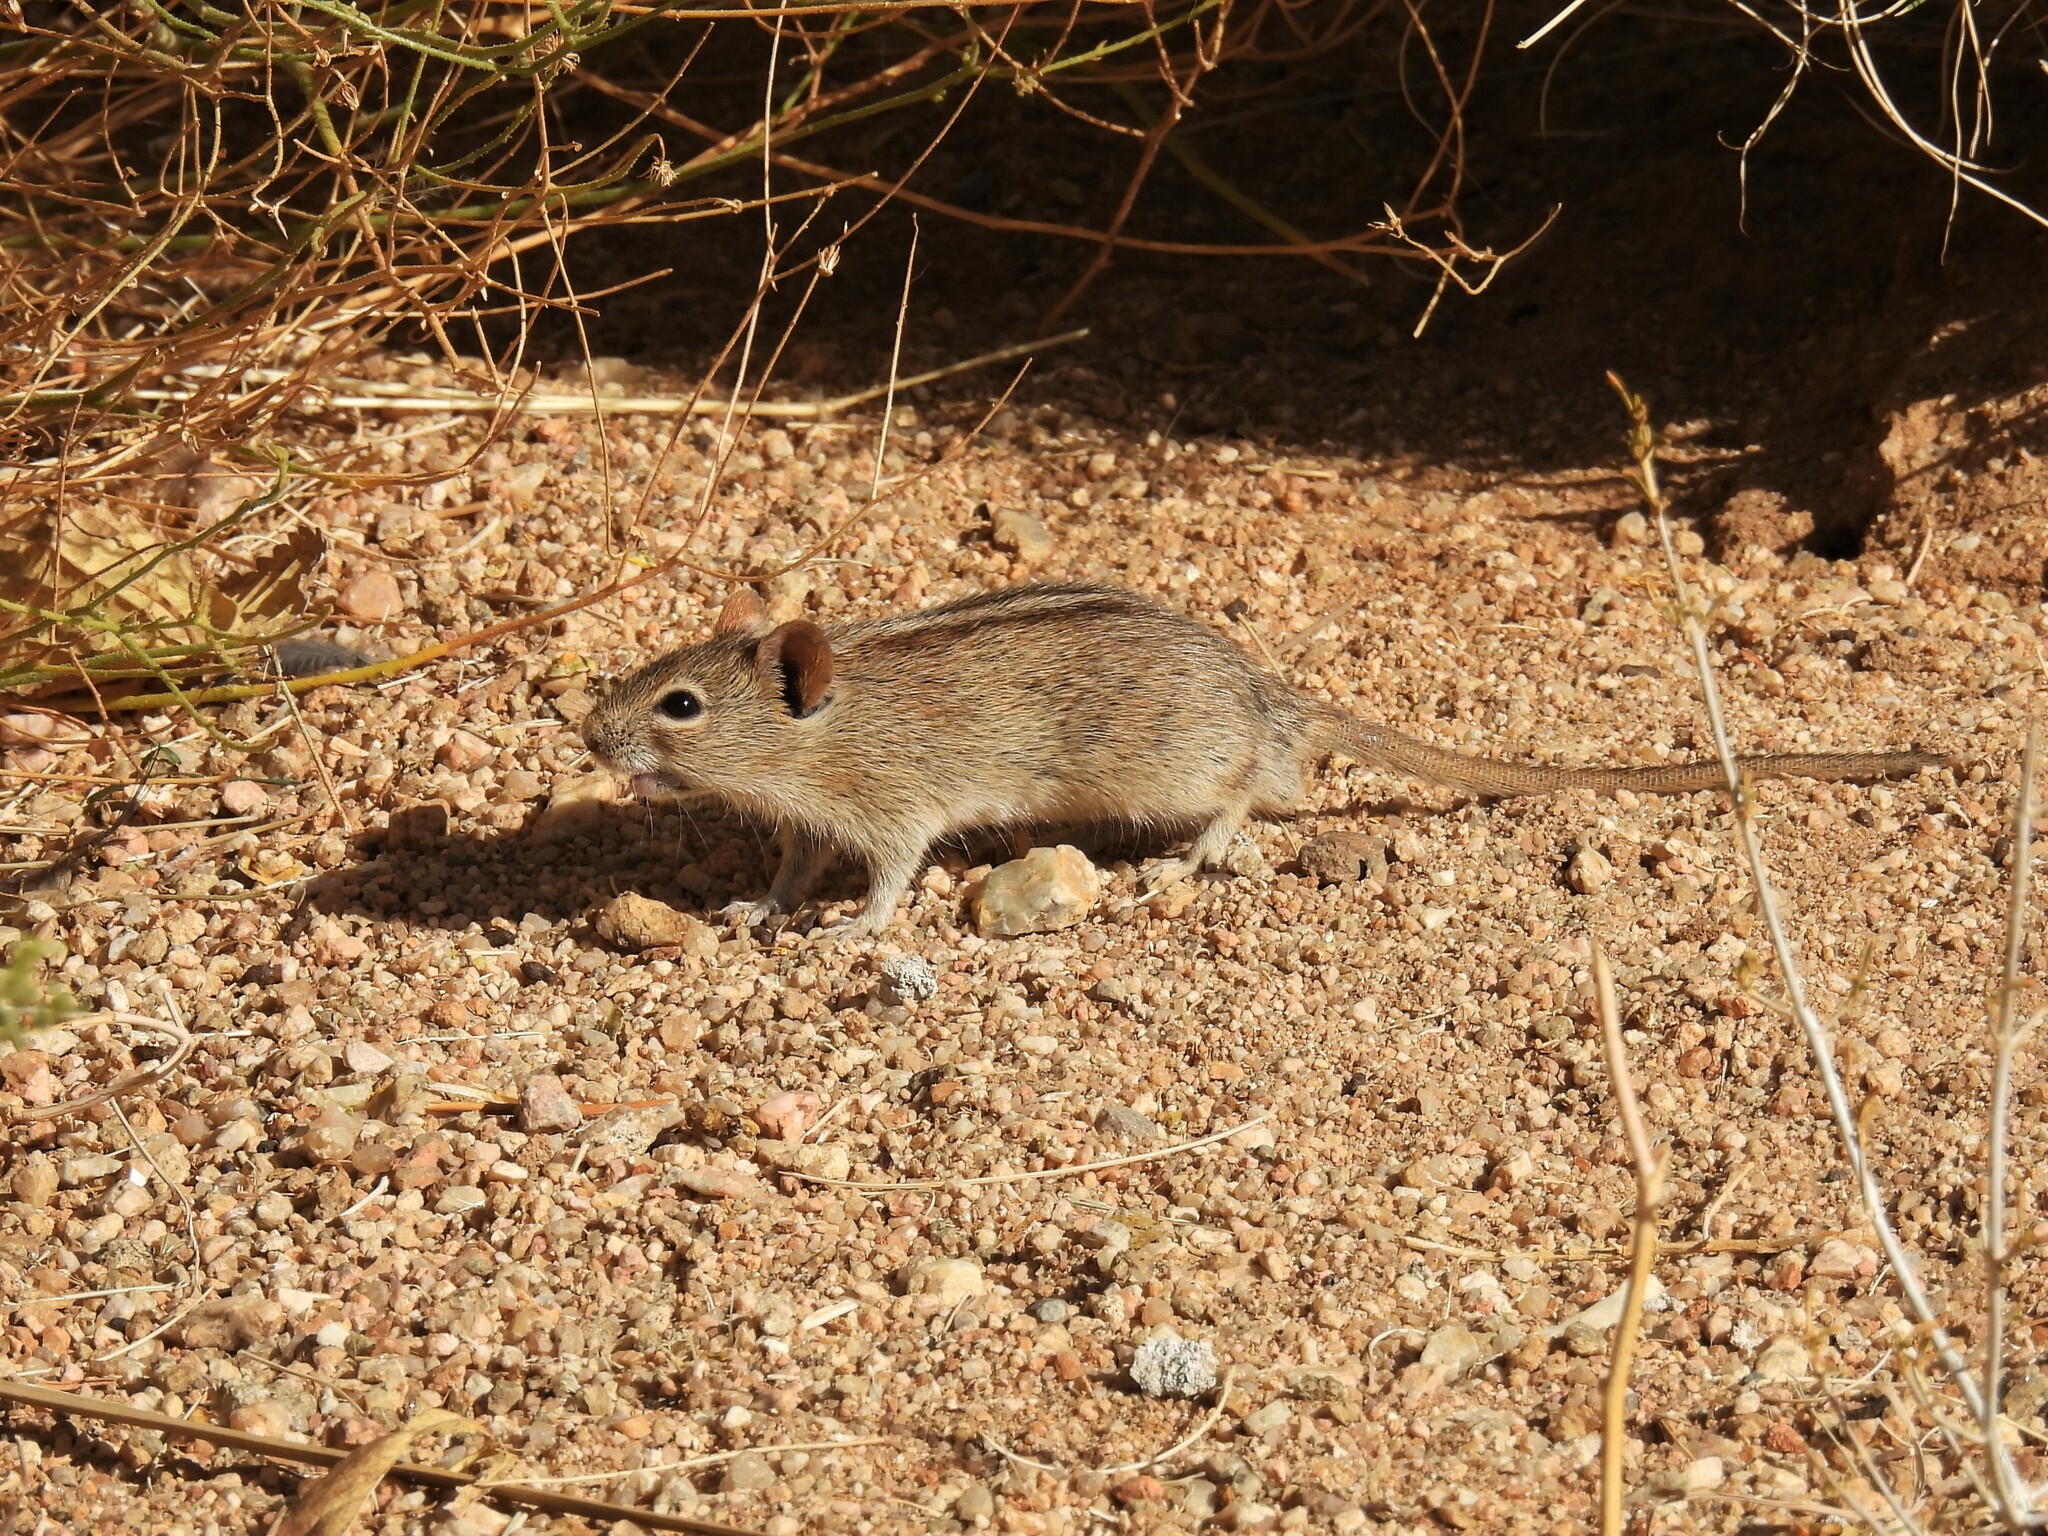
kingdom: Animalia
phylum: Chordata
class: Mammalia
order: Rodentia
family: Muridae
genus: Rhabdomys
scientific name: Rhabdomys pumilio
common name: Xeric four-striped grass rat
